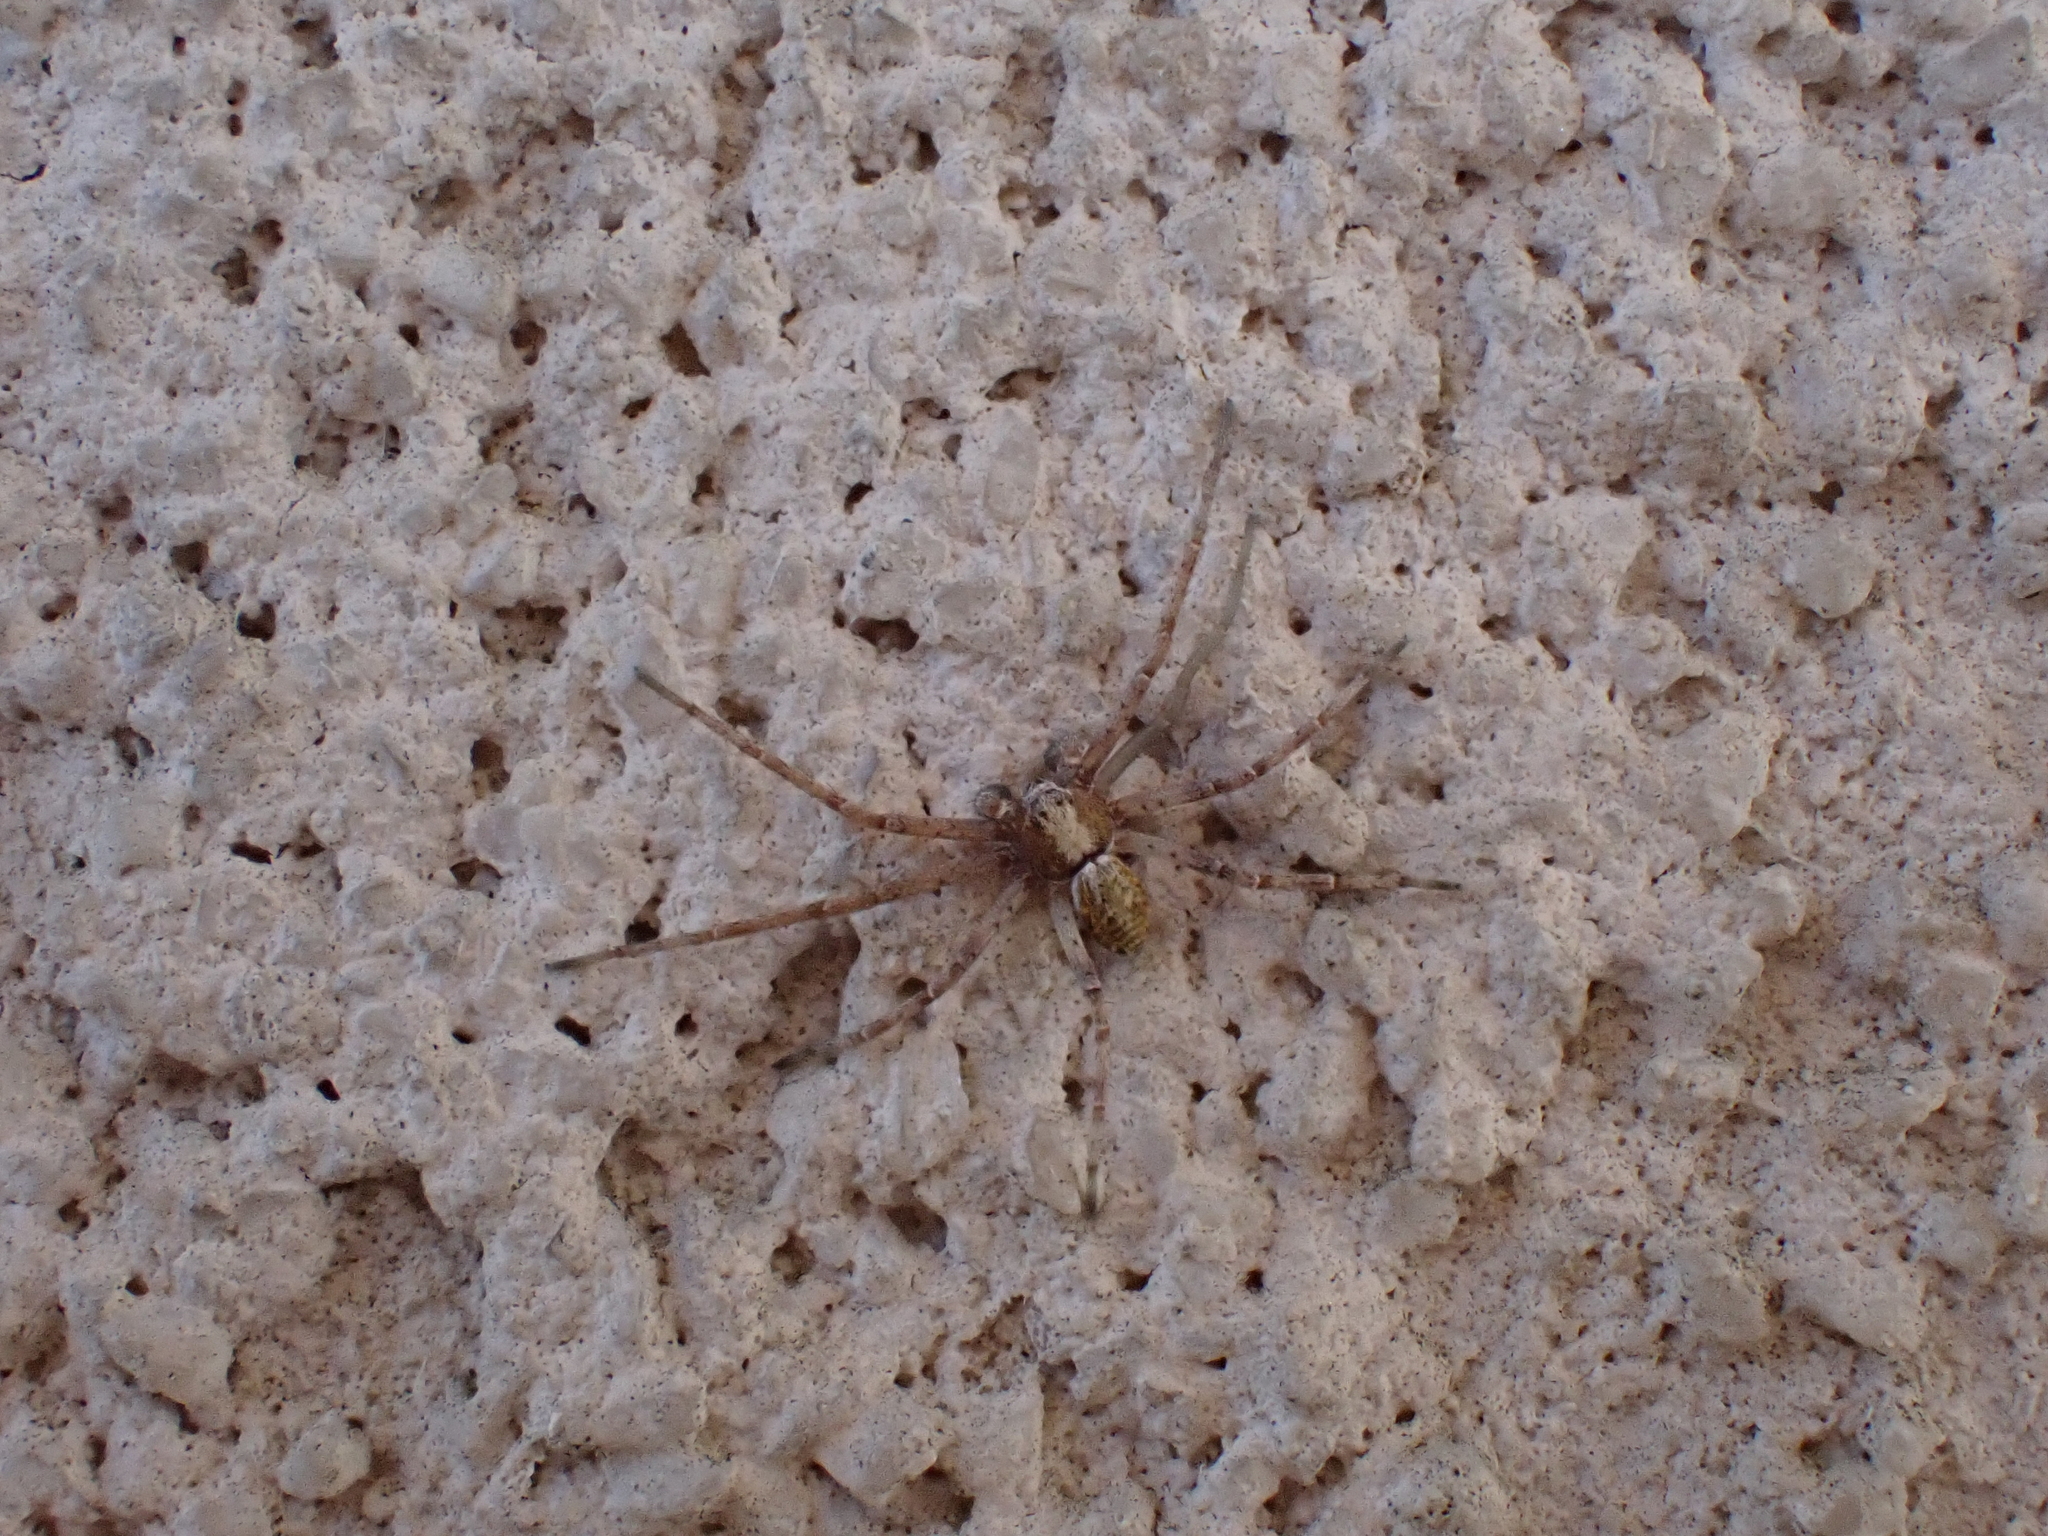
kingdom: Animalia
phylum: Arthropoda
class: Arachnida
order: Araneae
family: Philodromidae
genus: Philodromus
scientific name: Philodromus
